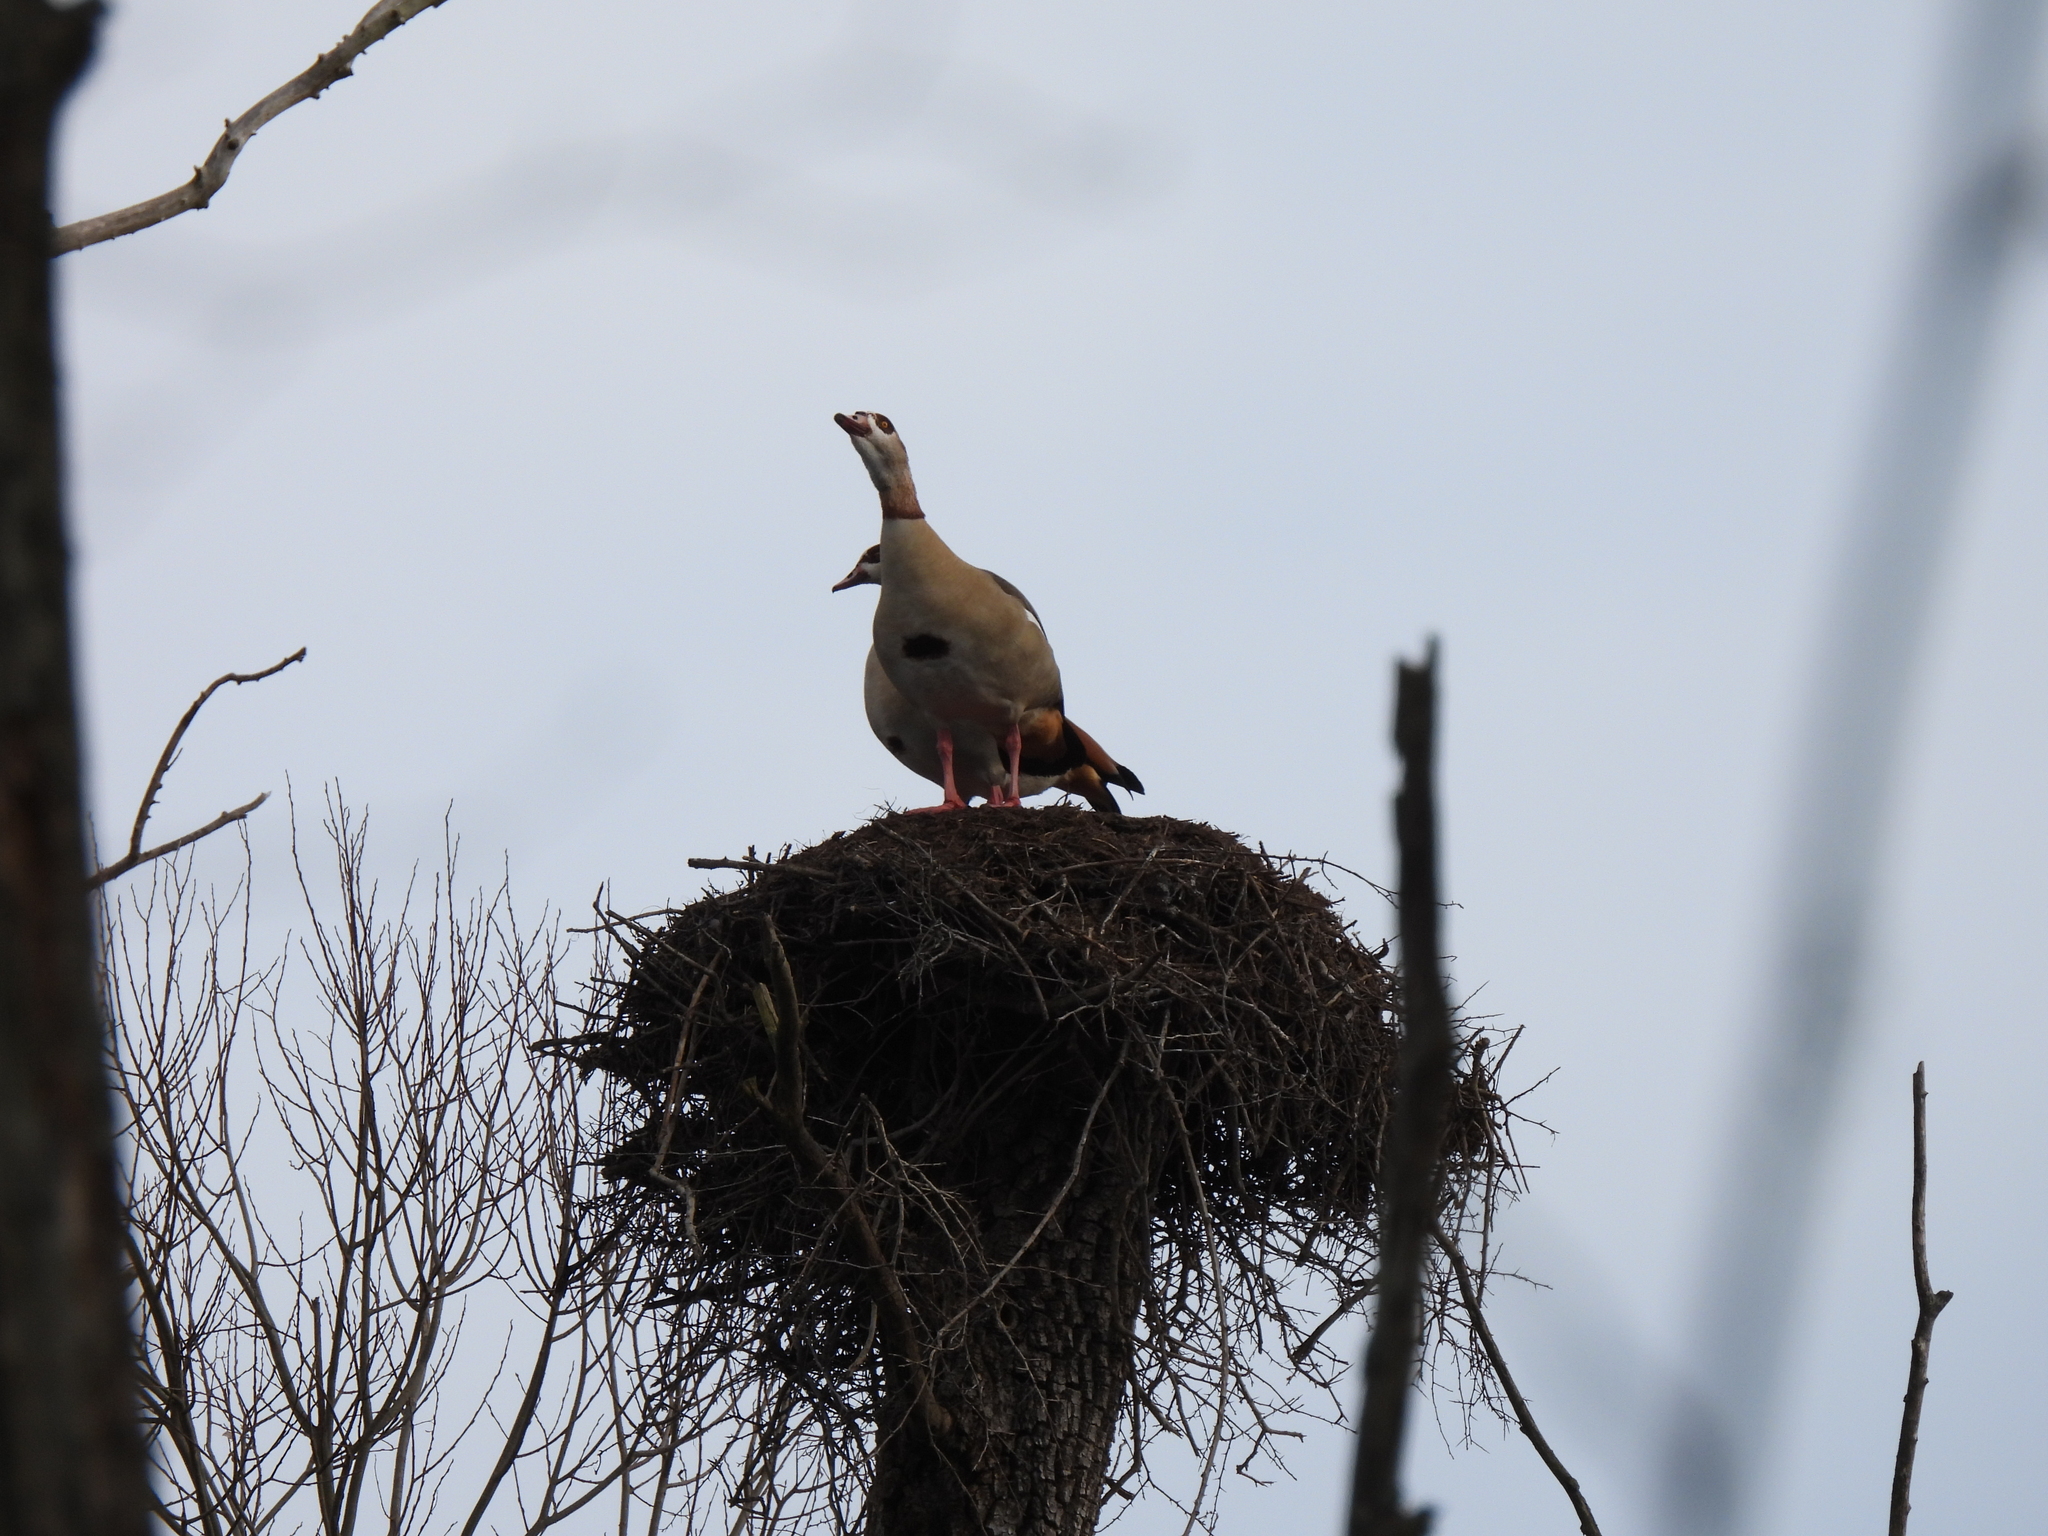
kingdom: Animalia
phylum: Chordata
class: Aves
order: Anseriformes
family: Anatidae
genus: Alopochen
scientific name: Alopochen aegyptiaca
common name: Egyptian goose
